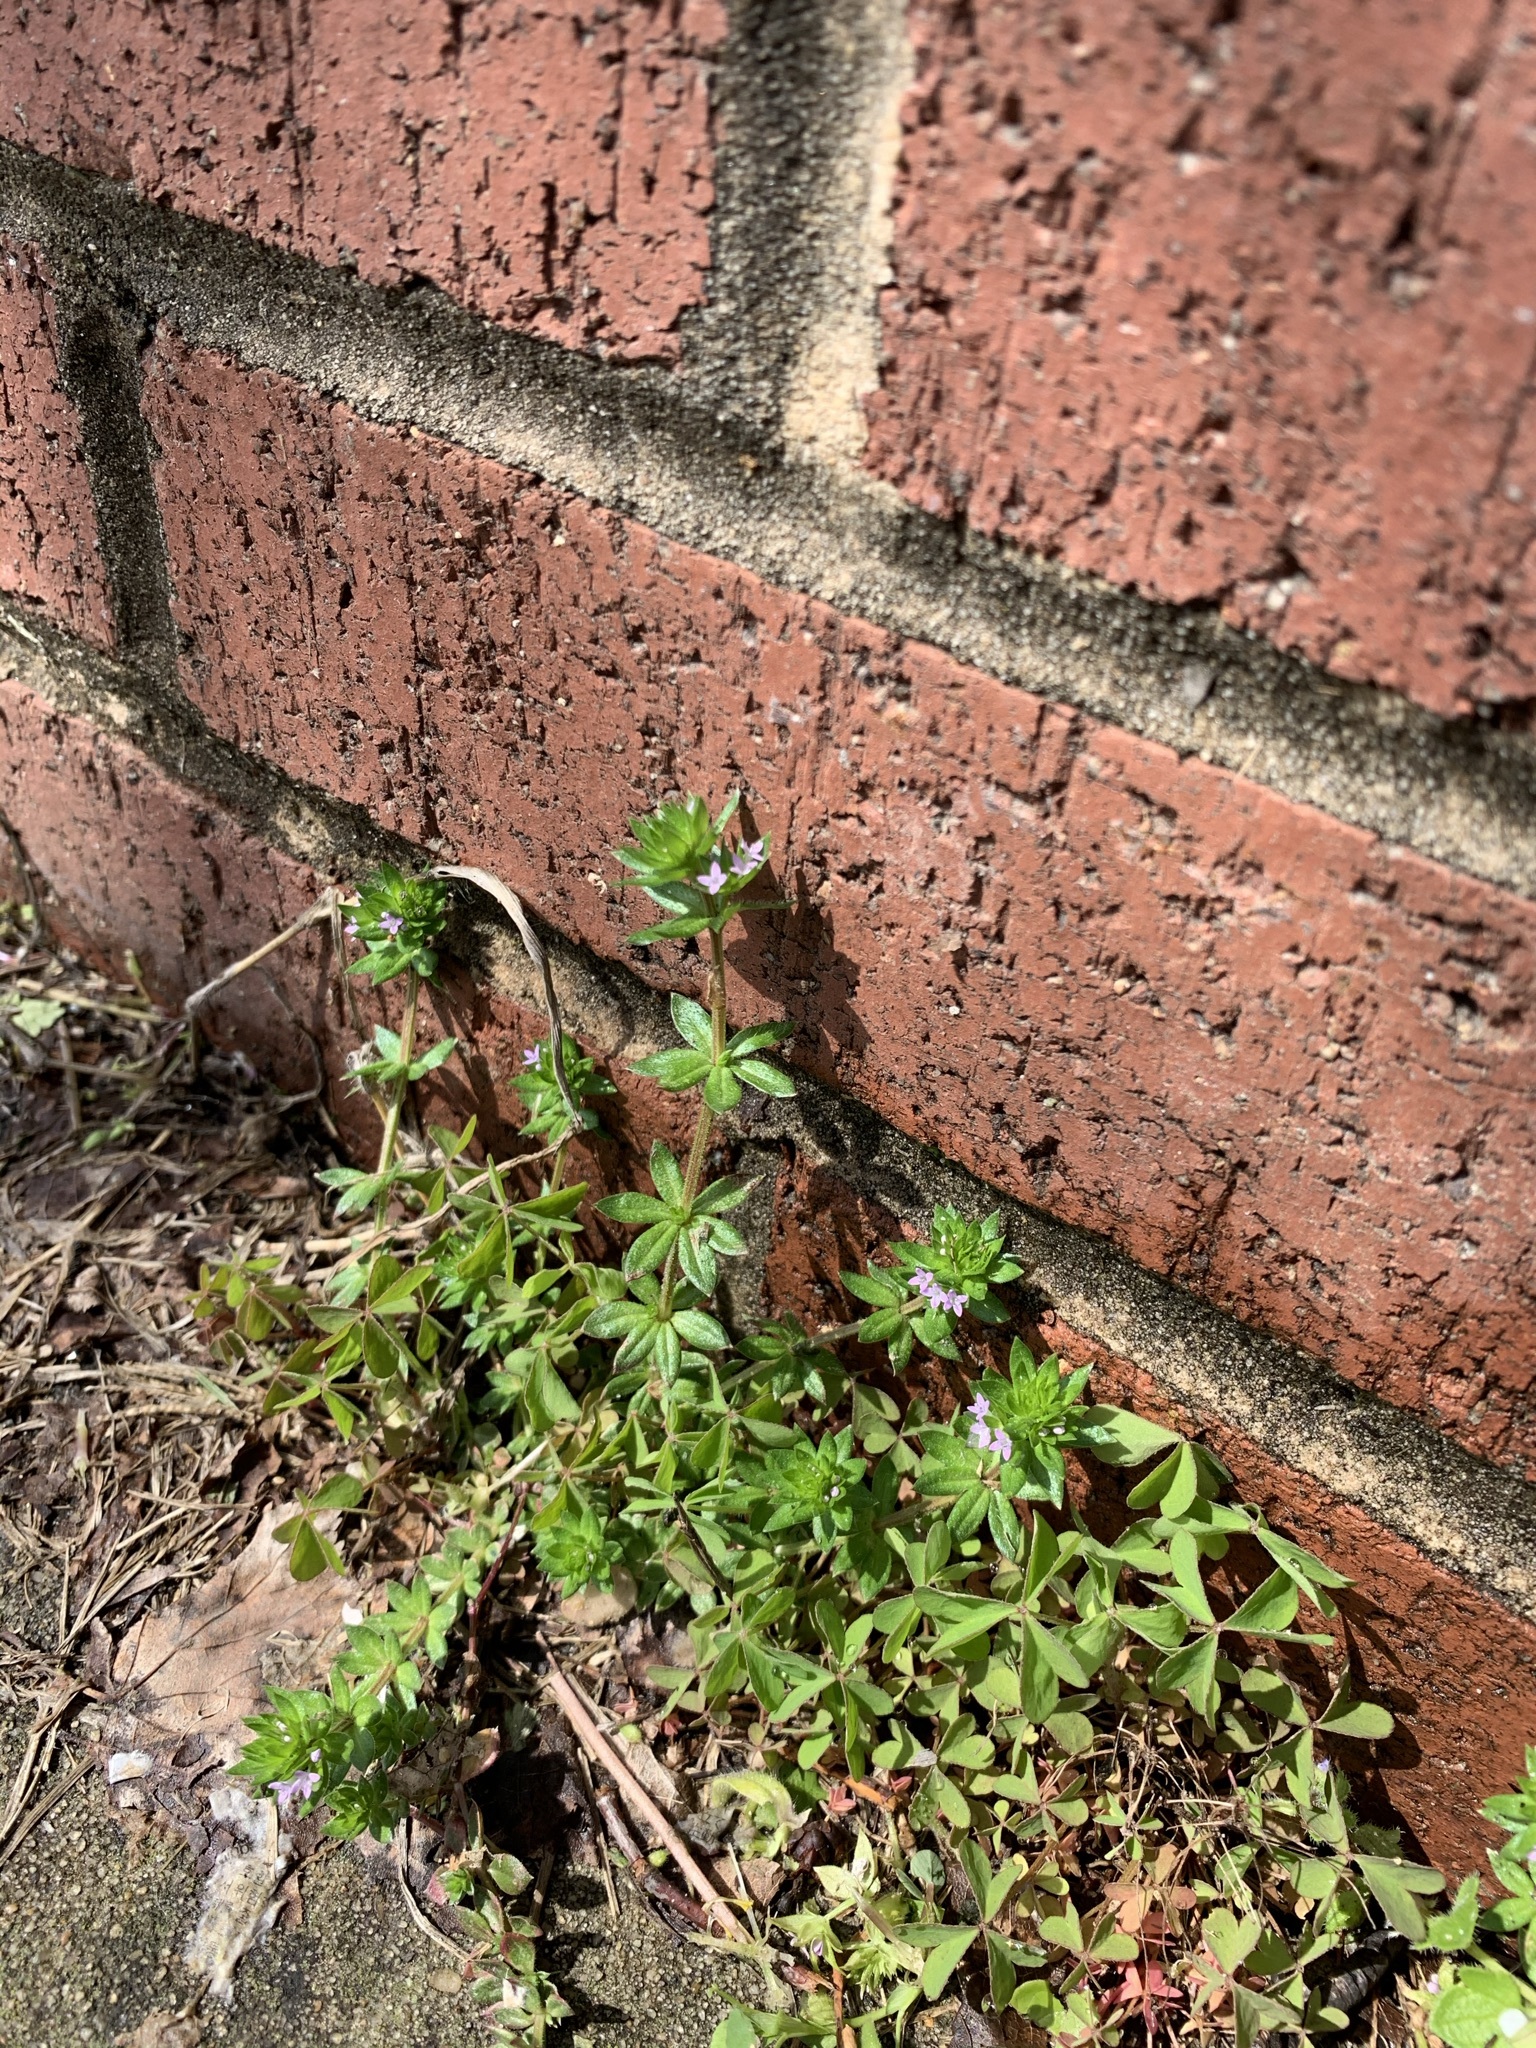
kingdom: Plantae
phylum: Tracheophyta
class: Magnoliopsida
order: Gentianales
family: Rubiaceae
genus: Sherardia
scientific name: Sherardia arvensis
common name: Field madder
